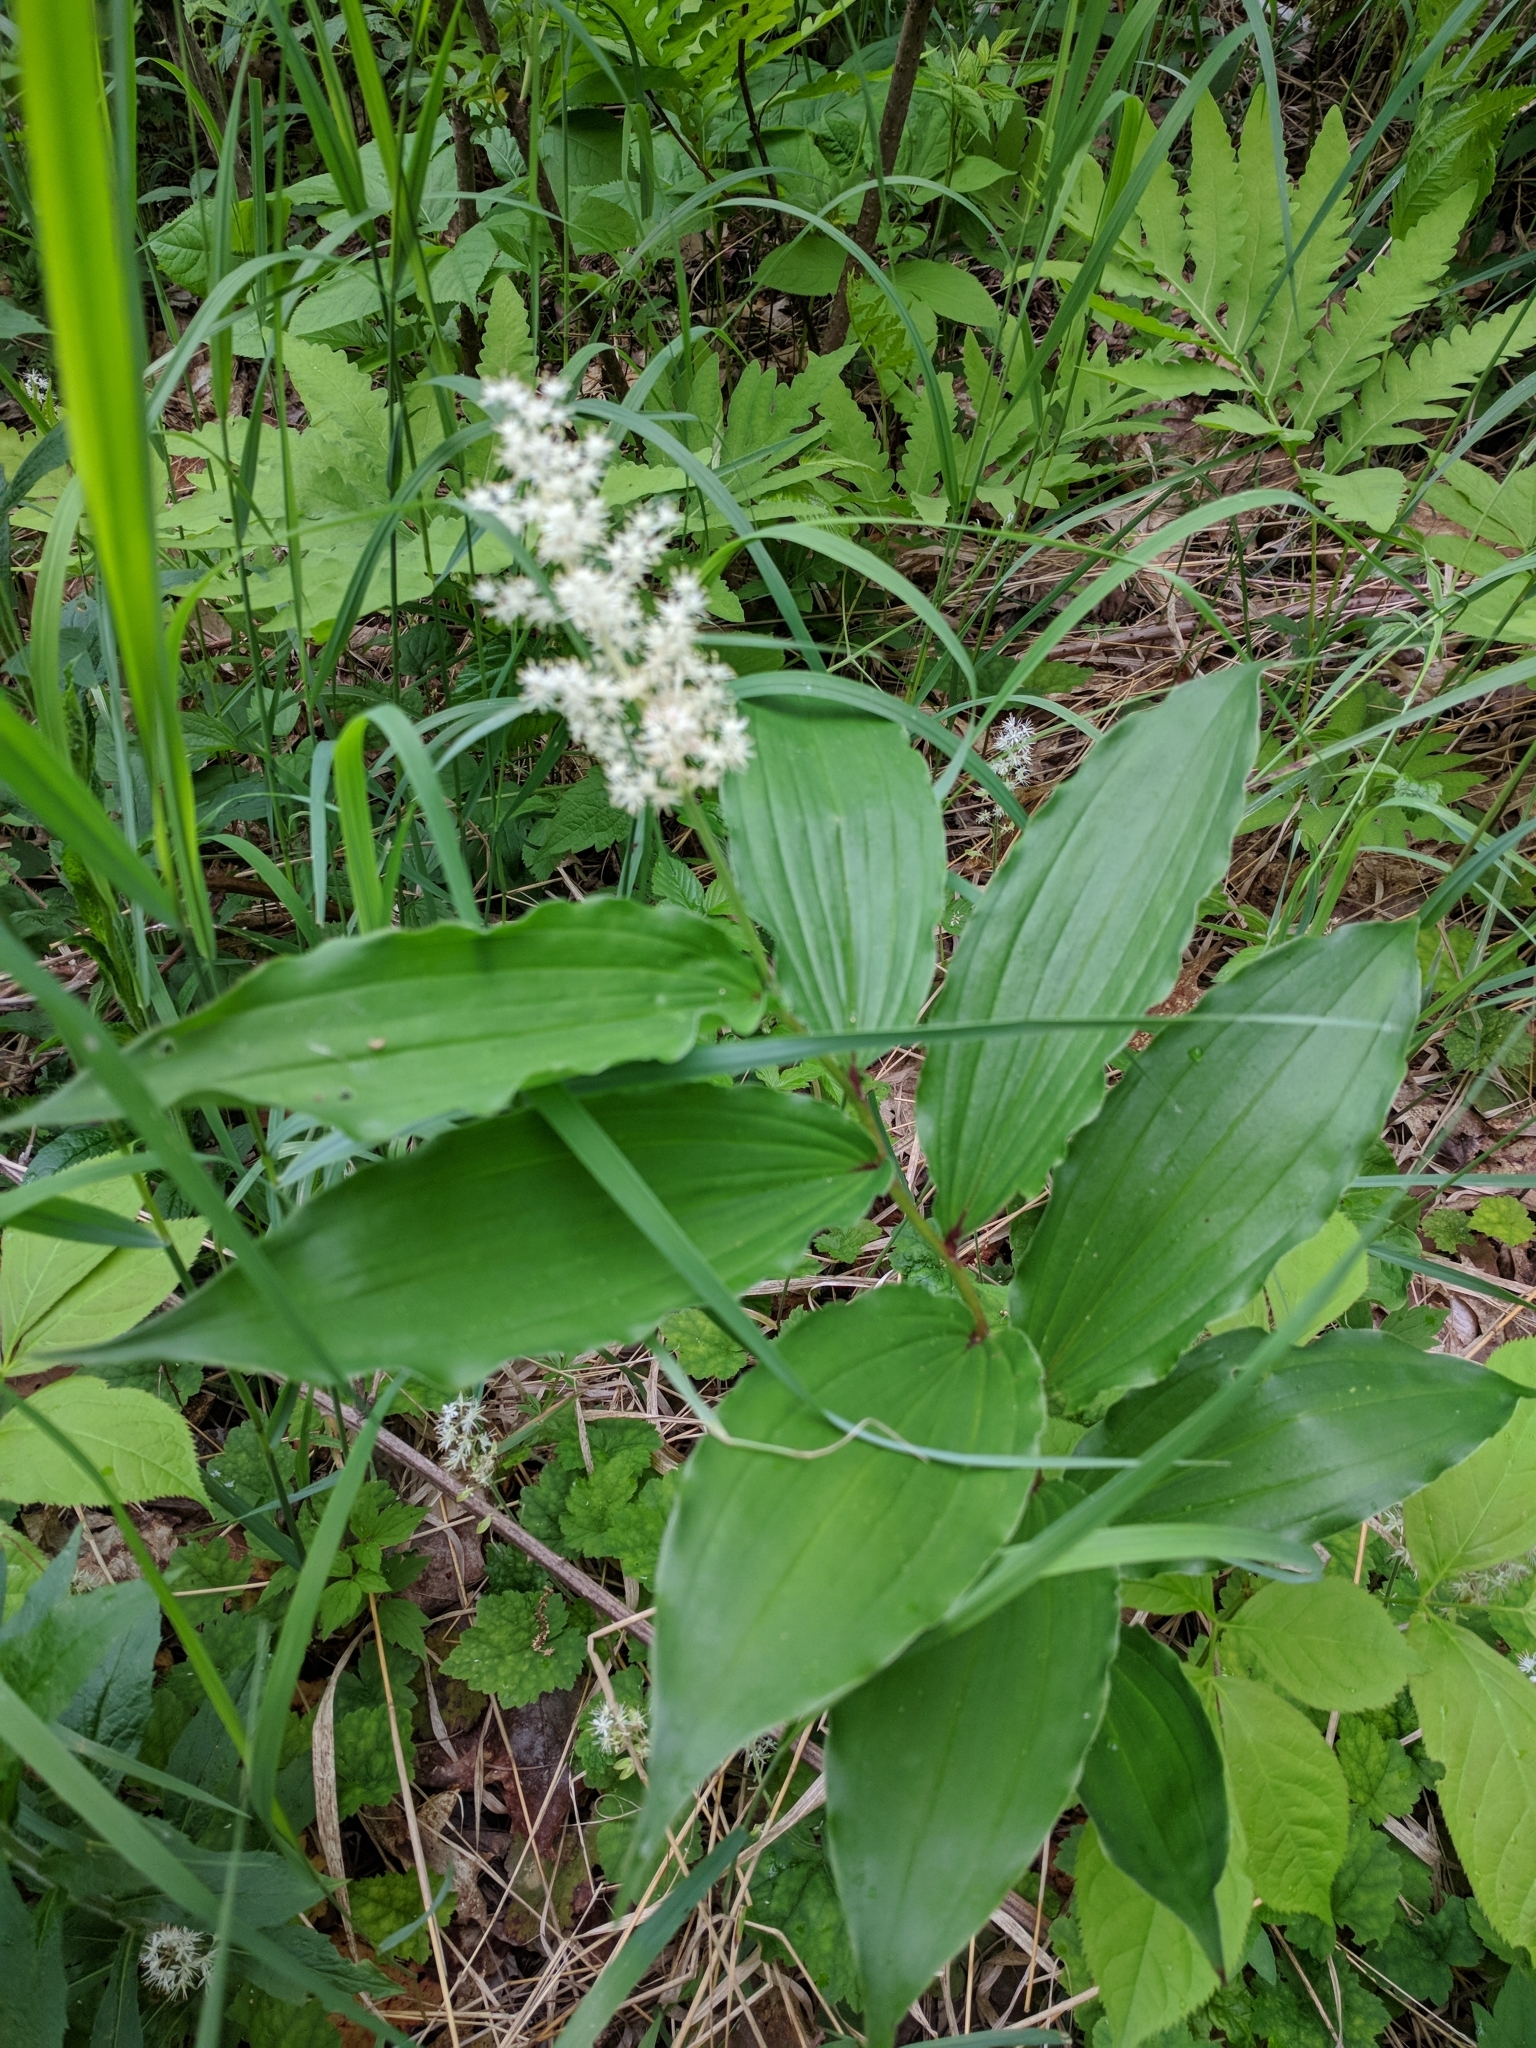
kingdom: Plantae
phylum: Tracheophyta
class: Liliopsida
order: Asparagales
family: Asparagaceae
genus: Maianthemum
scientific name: Maianthemum racemosum
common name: False spikenard
